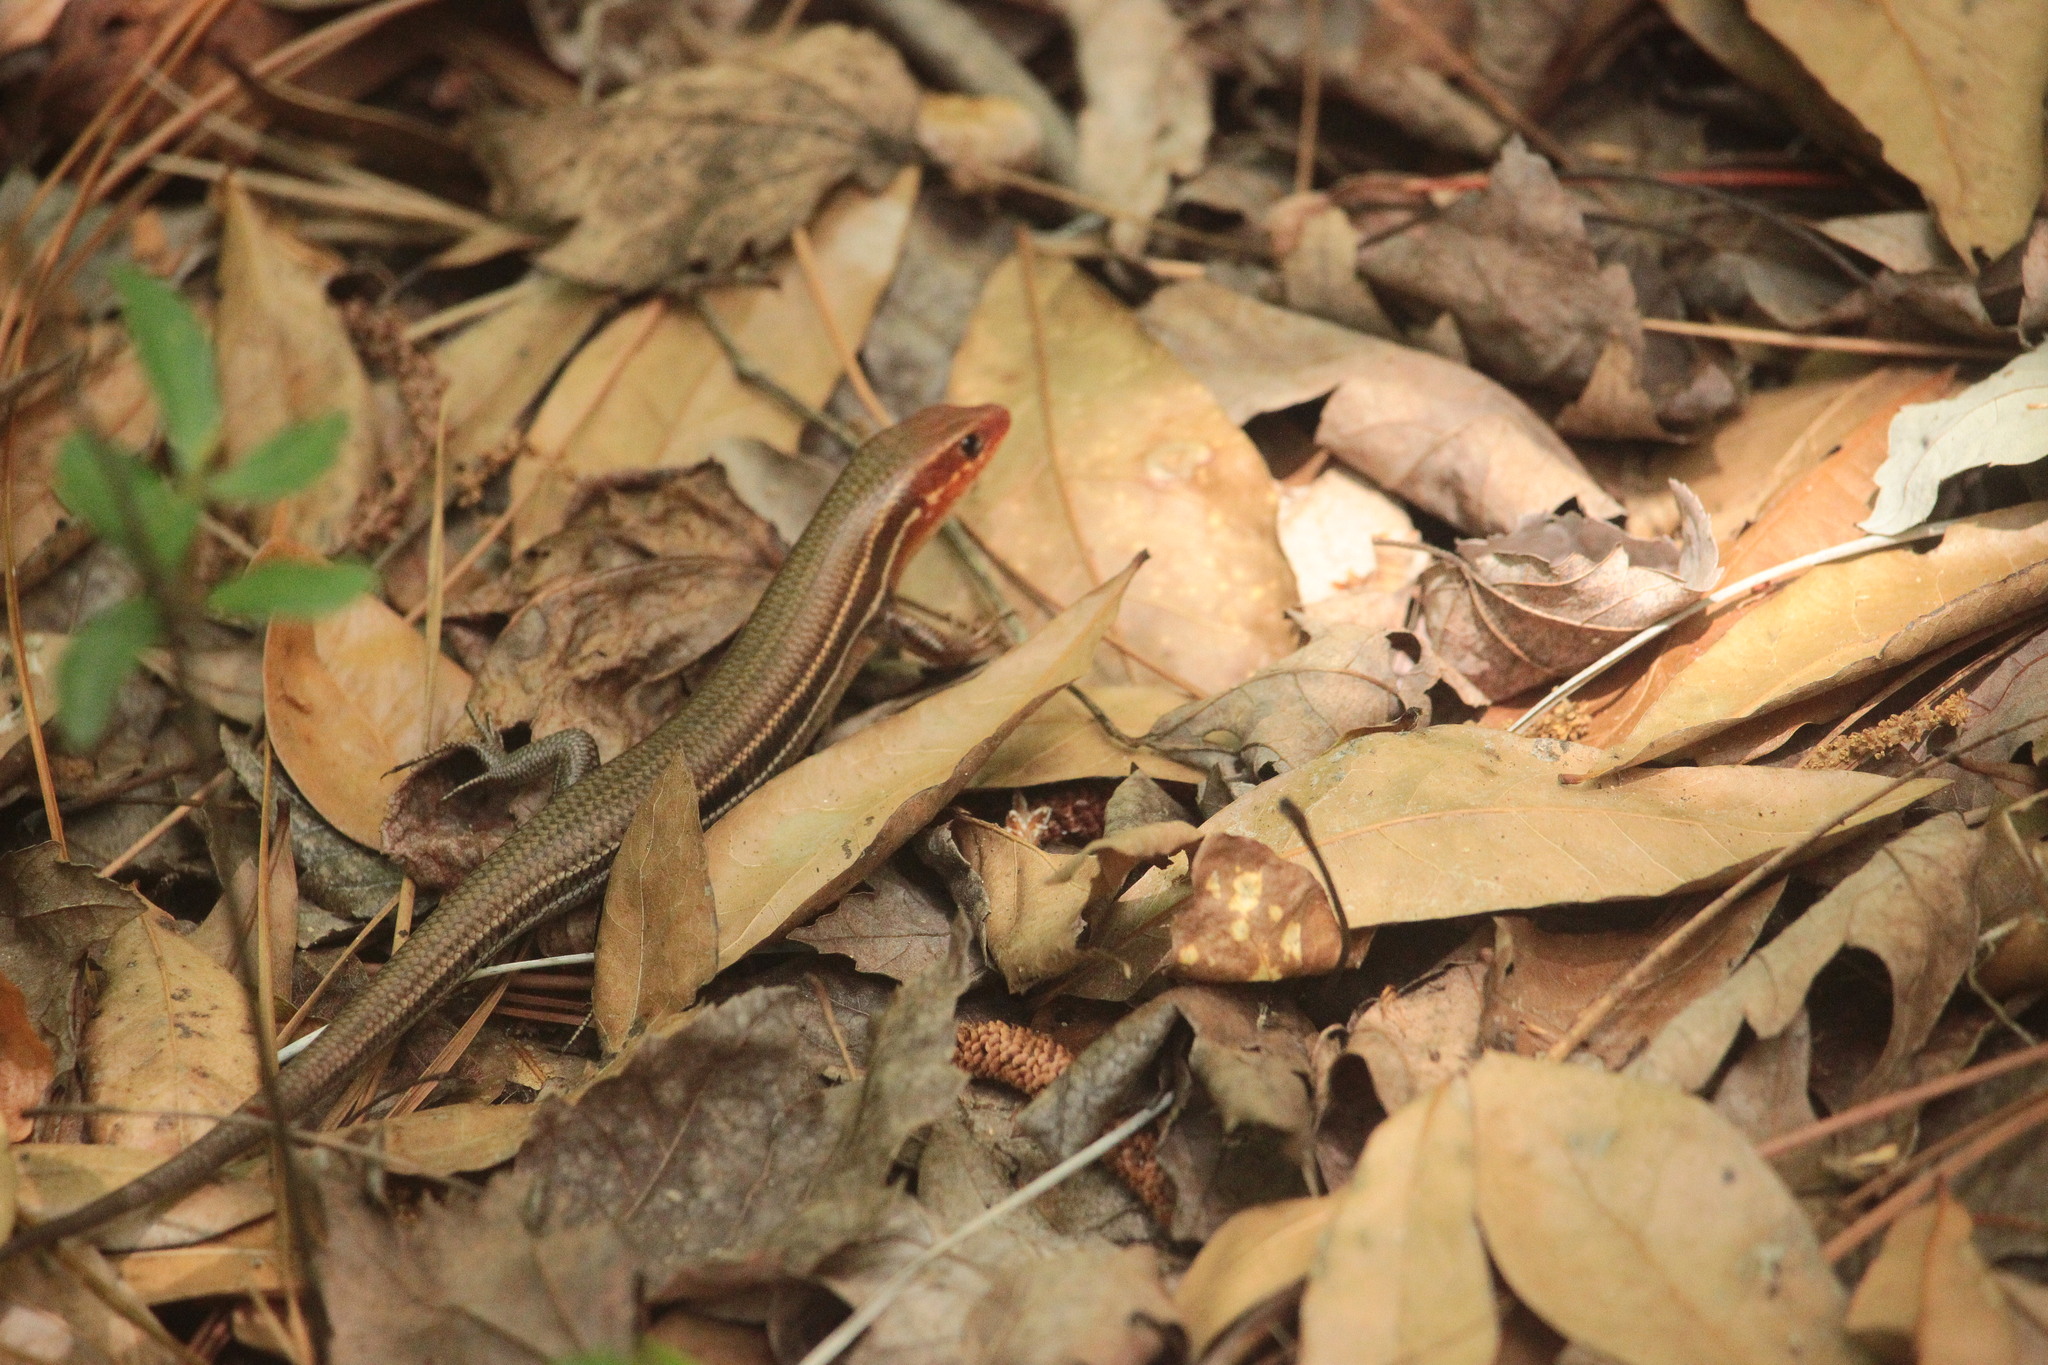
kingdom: Animalia
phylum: Chordata
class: Squamata
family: Scincidae
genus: Plestiodon
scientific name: Plestiodon inexpectatus
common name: Southeastern five-lined skink
